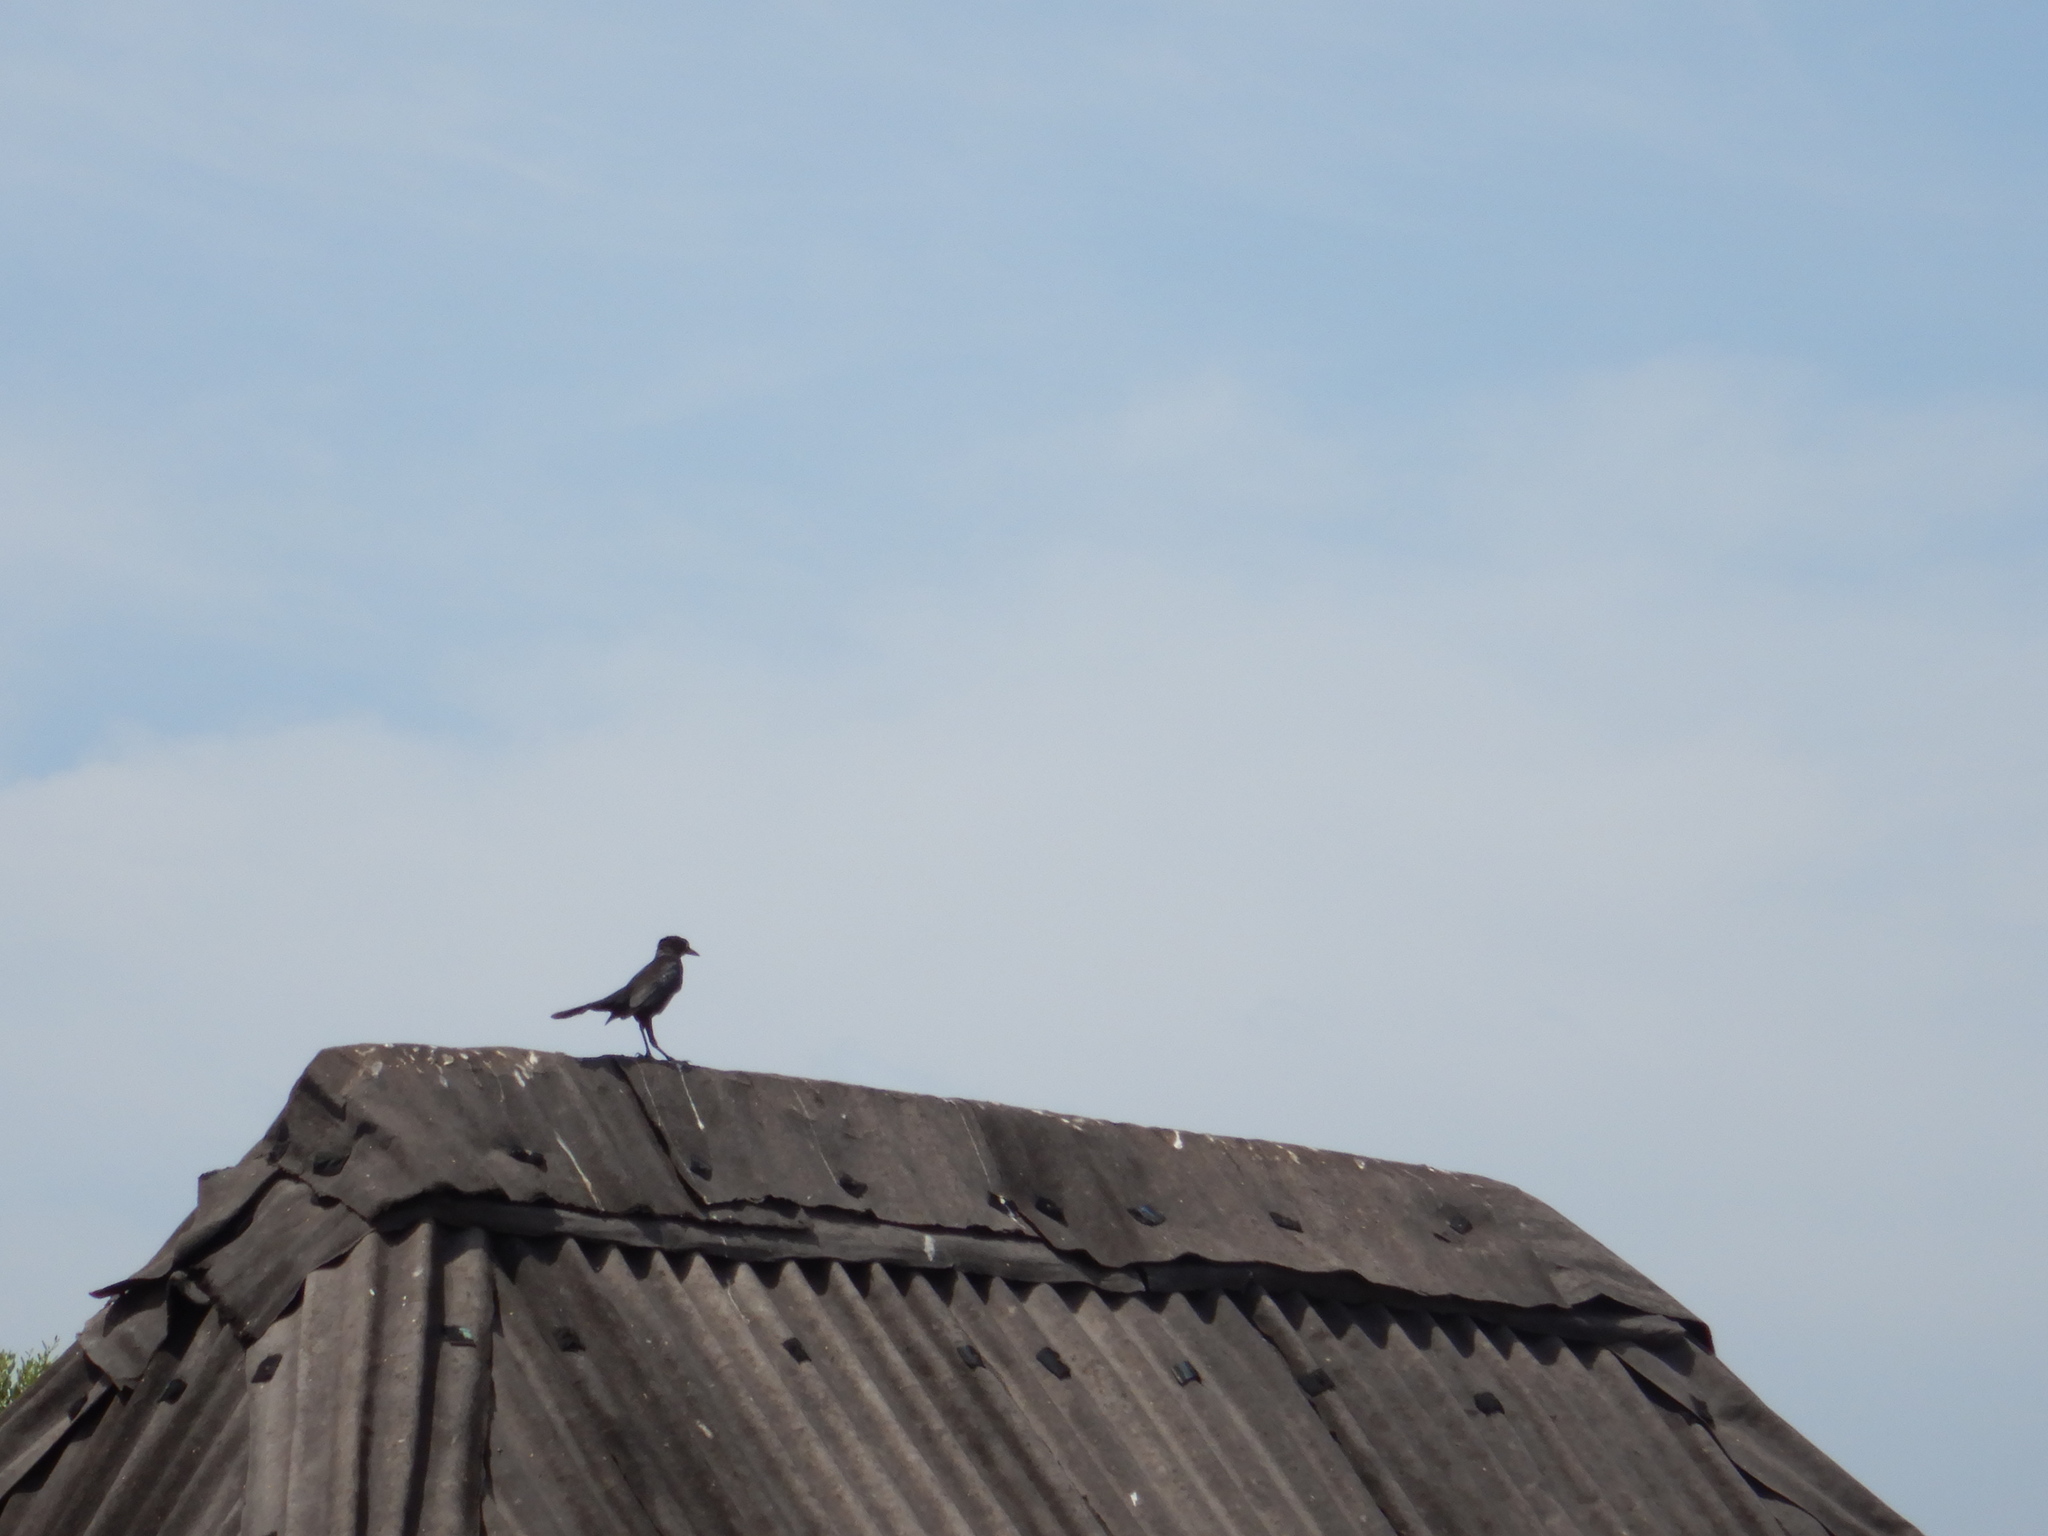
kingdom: Animalia
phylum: Chordata
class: Aves
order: Passeriformes
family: Icteridae
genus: Quiscalus
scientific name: Quiscalus mexicanus
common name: Great-tailed grackle
